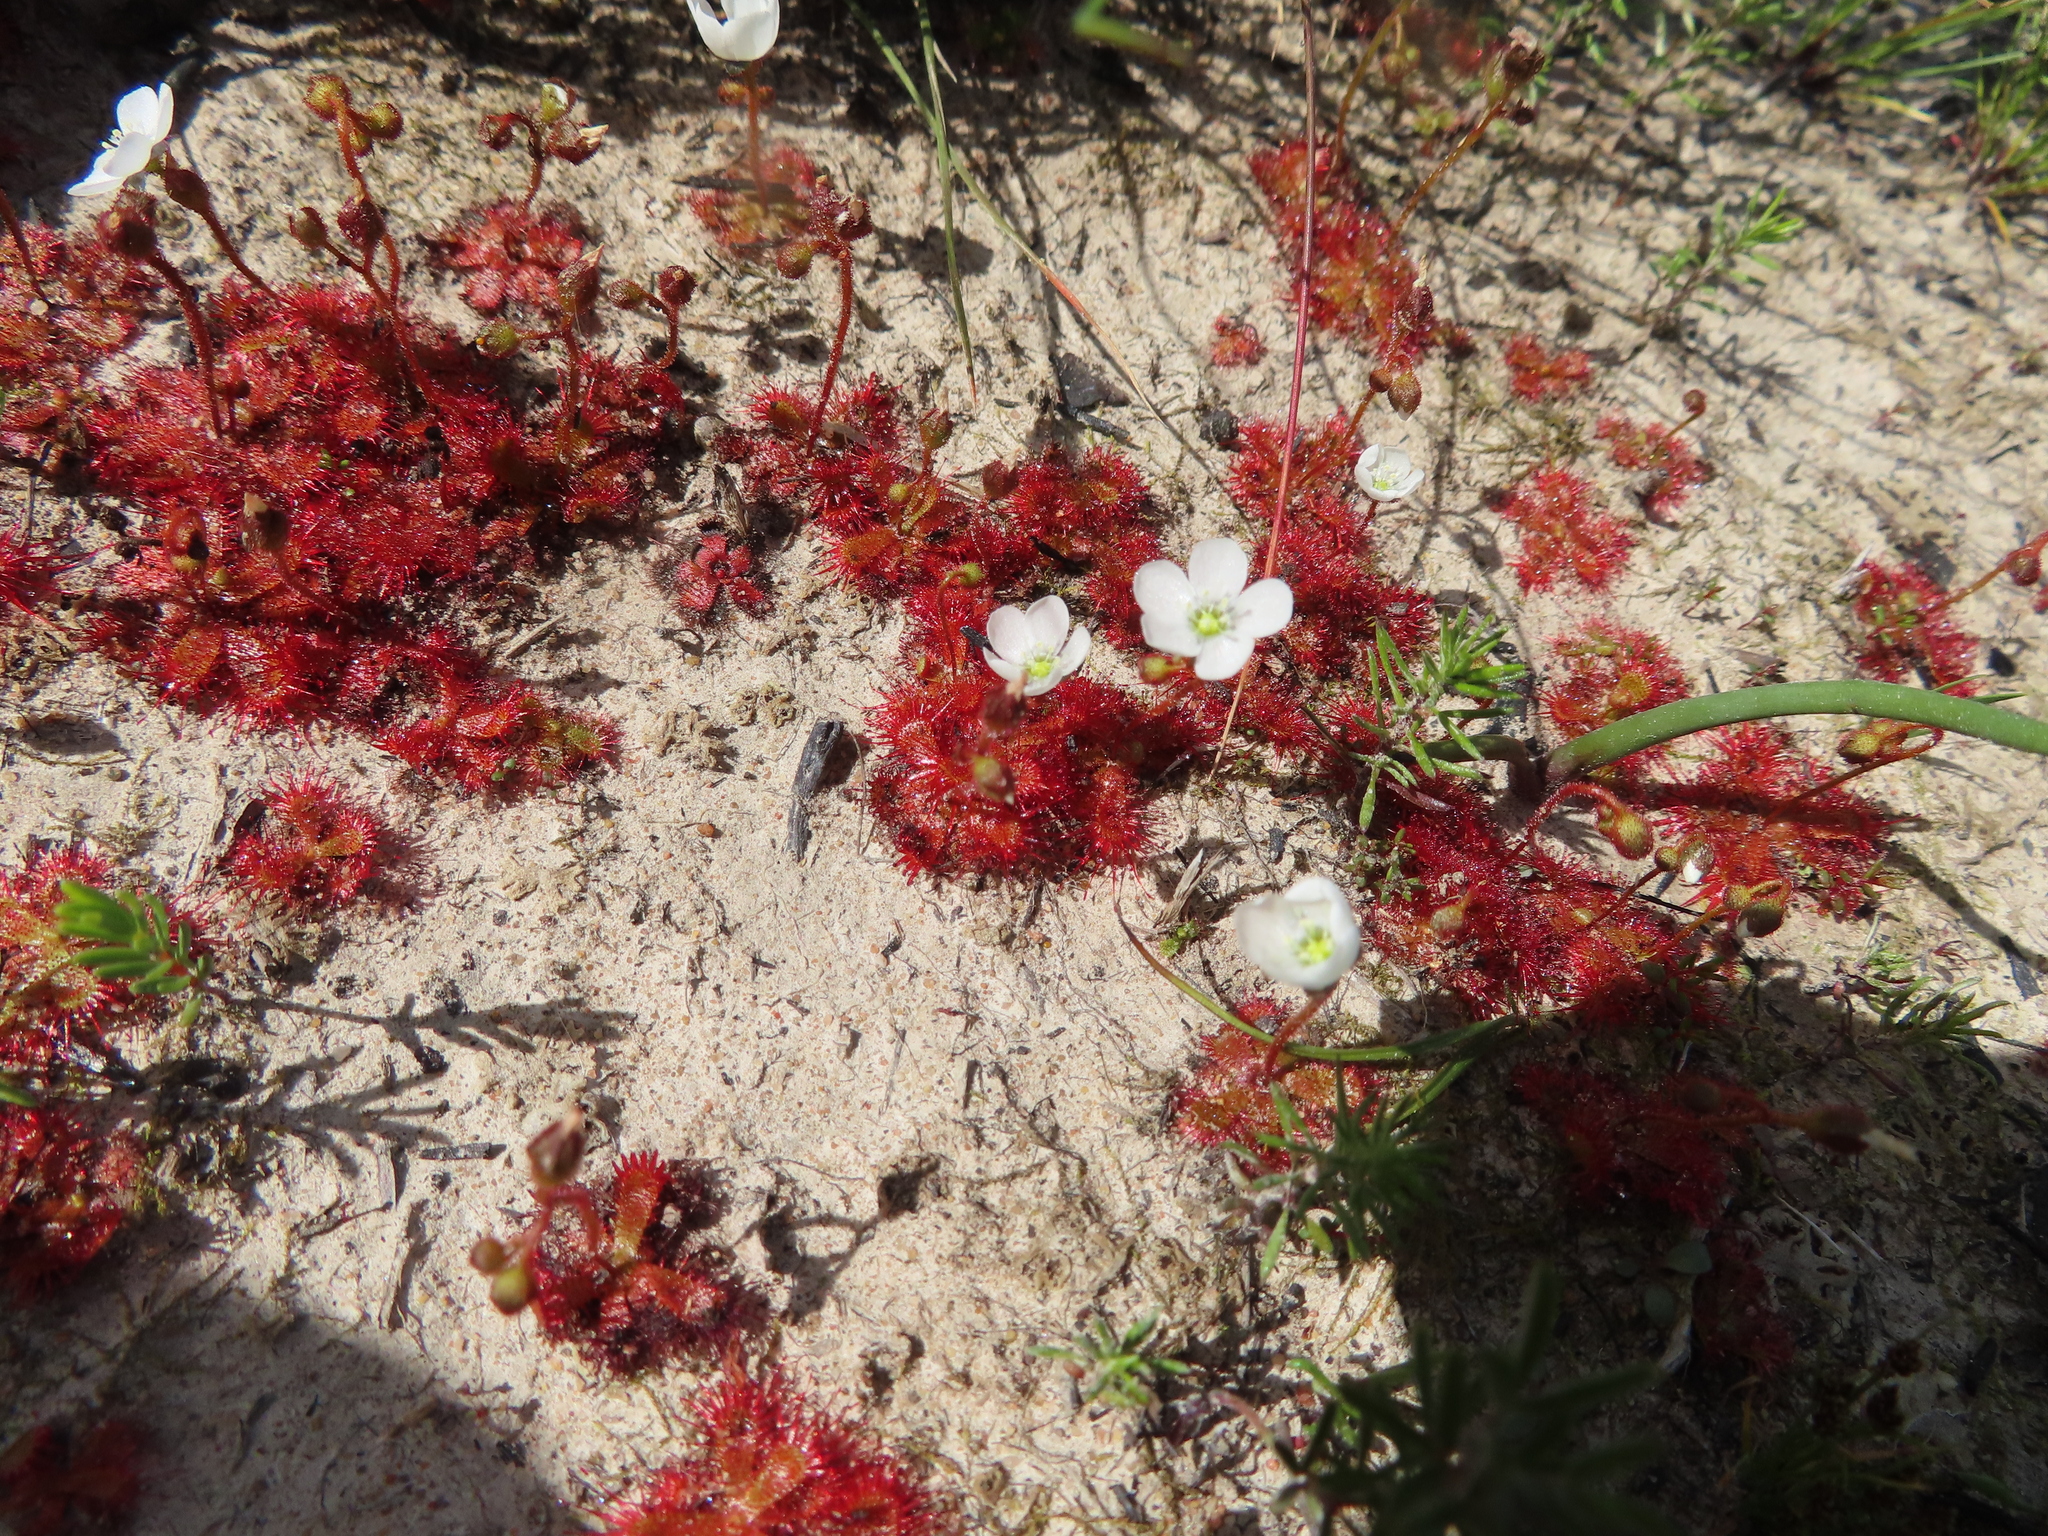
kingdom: Plantae
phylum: Tracheophyta
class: Magnoliopsida
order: Caryophyllales
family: Droseraceae
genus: Drosera
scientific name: Drosera trinervia
